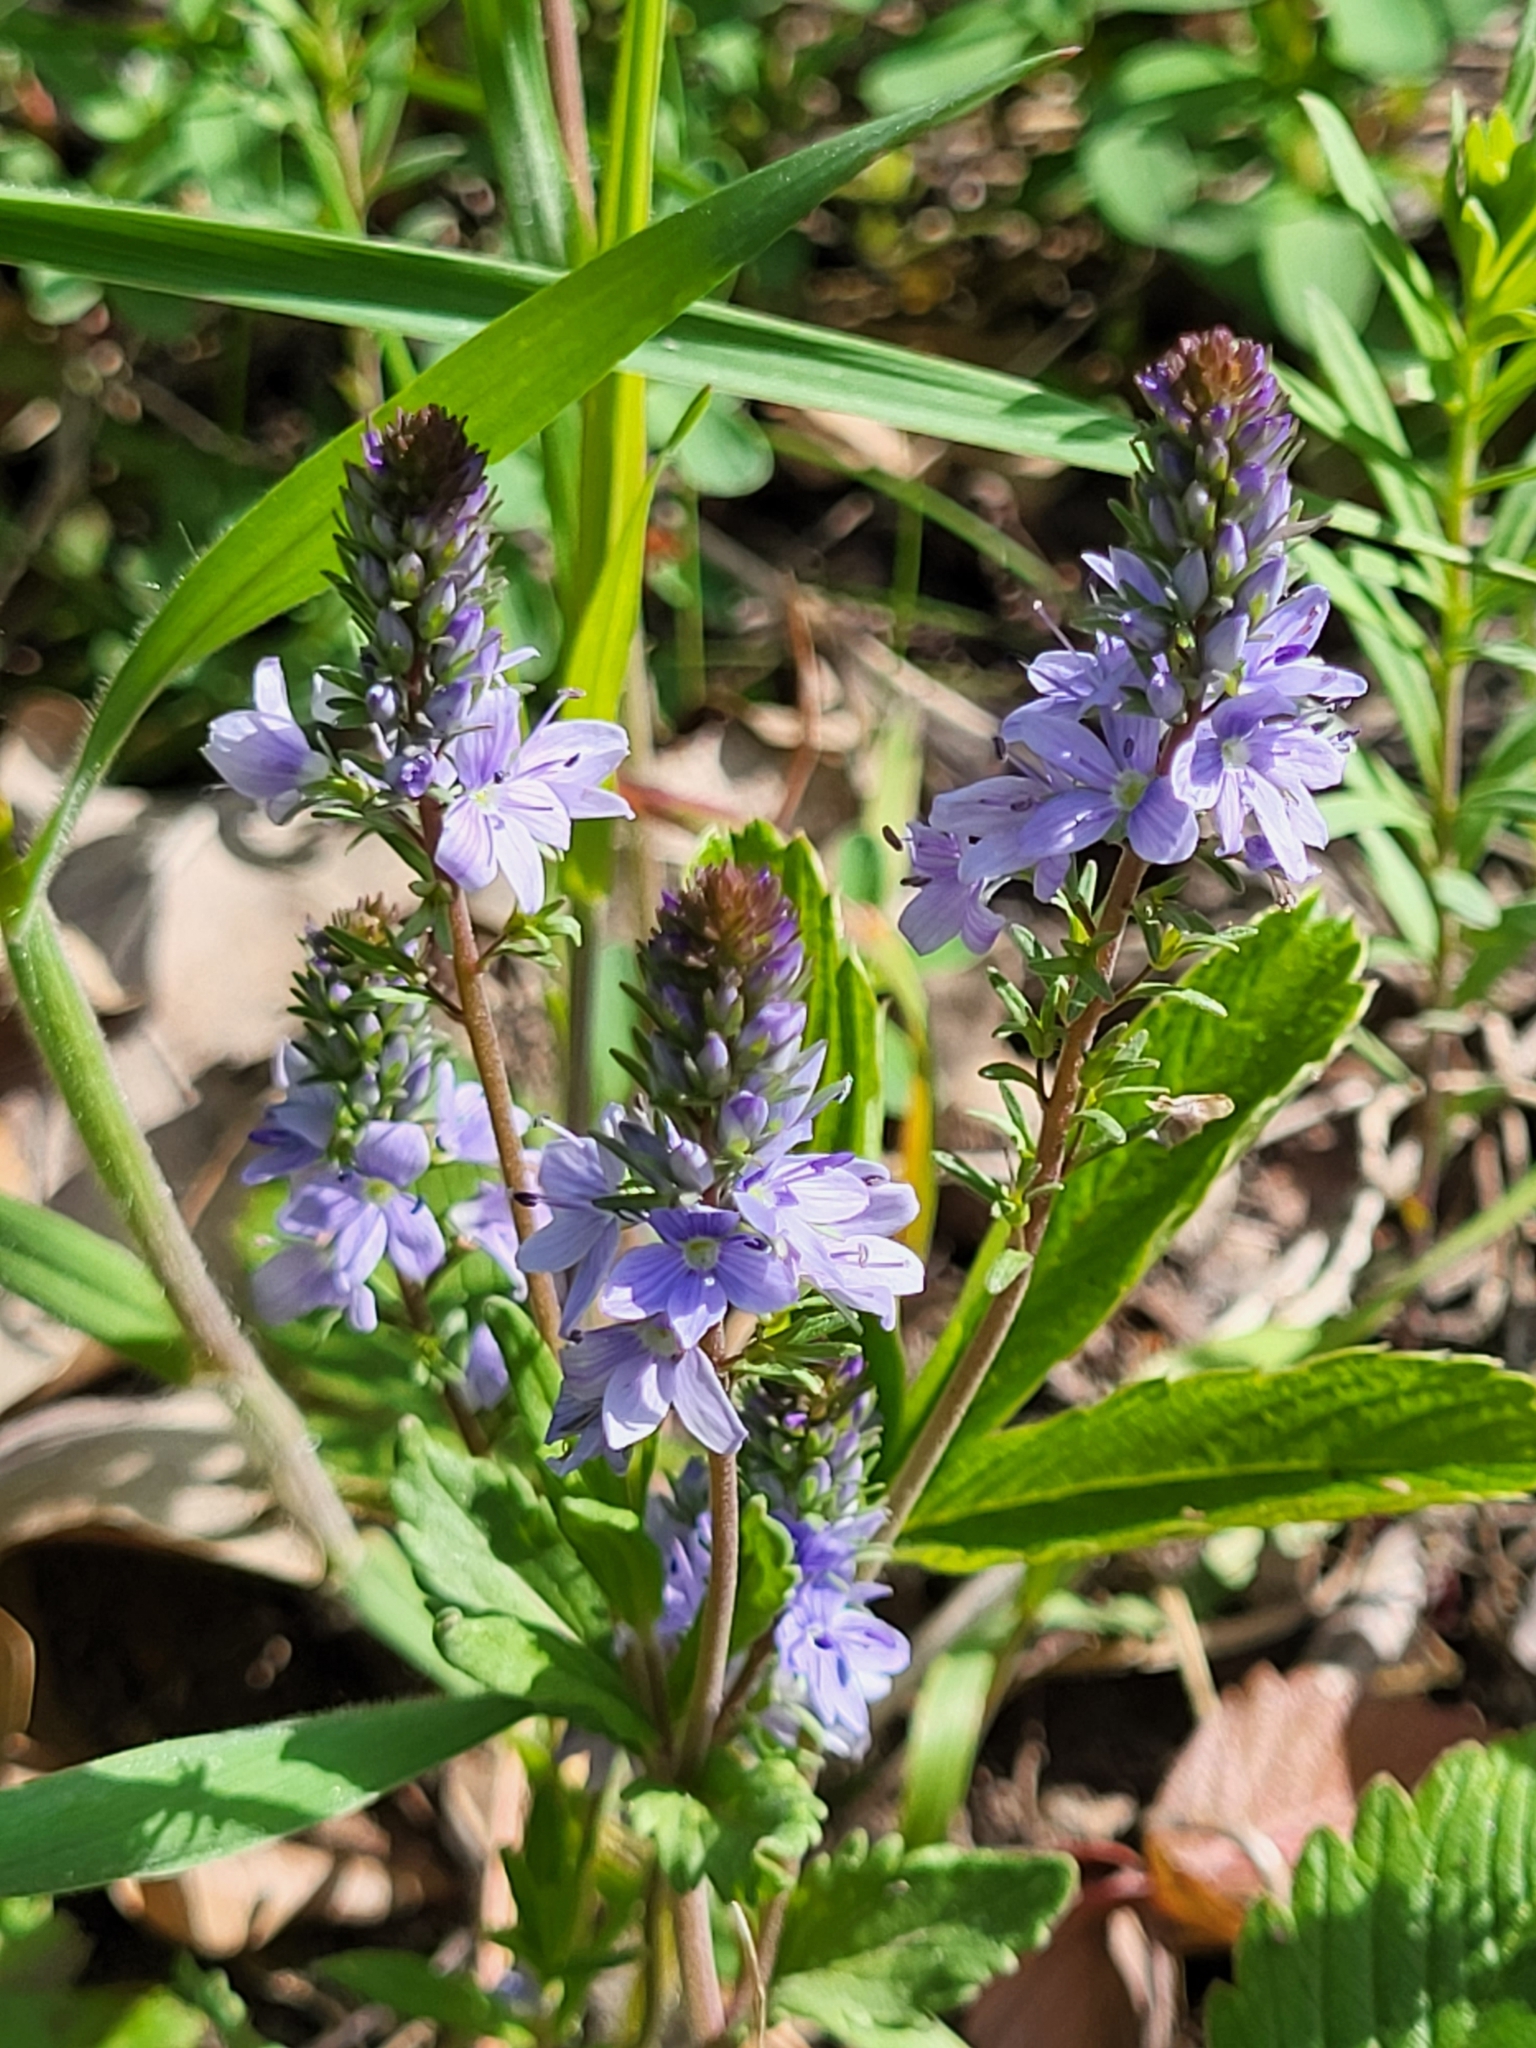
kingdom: Plantae
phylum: Tracheophyta
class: Magnoliopsida
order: Lamiales
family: Plantaginaceae
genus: Veronica
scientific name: Veronica prostrata
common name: Prostrate speedwell
